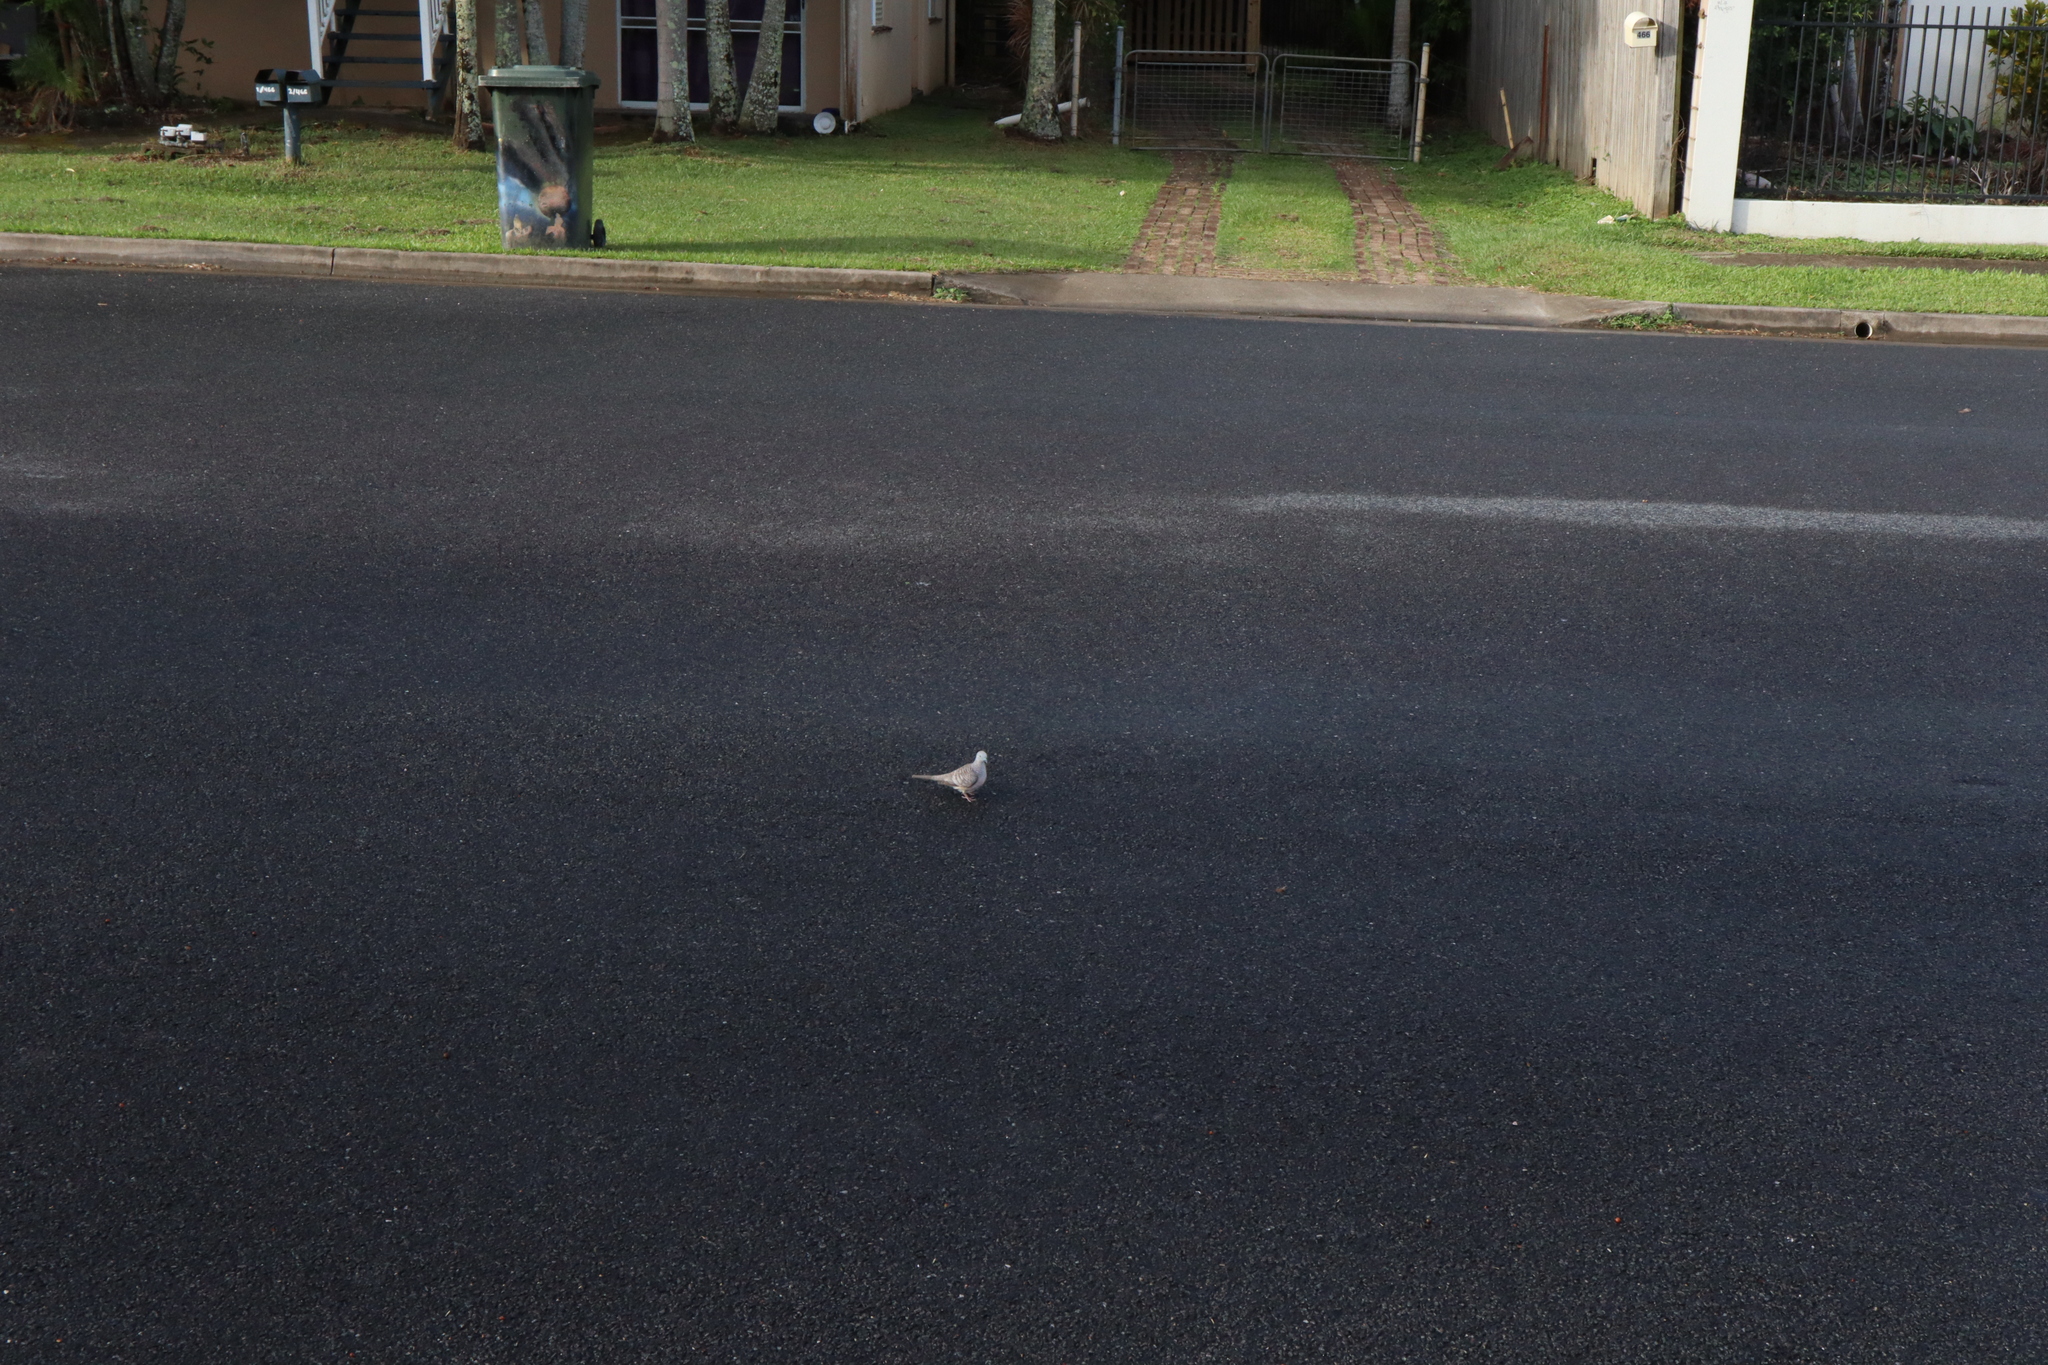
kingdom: Animalia
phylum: Chordata
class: Aves
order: Columbiformes
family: Columbidae
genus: Geopelia
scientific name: Geopelia placida
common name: Peaceful dove
